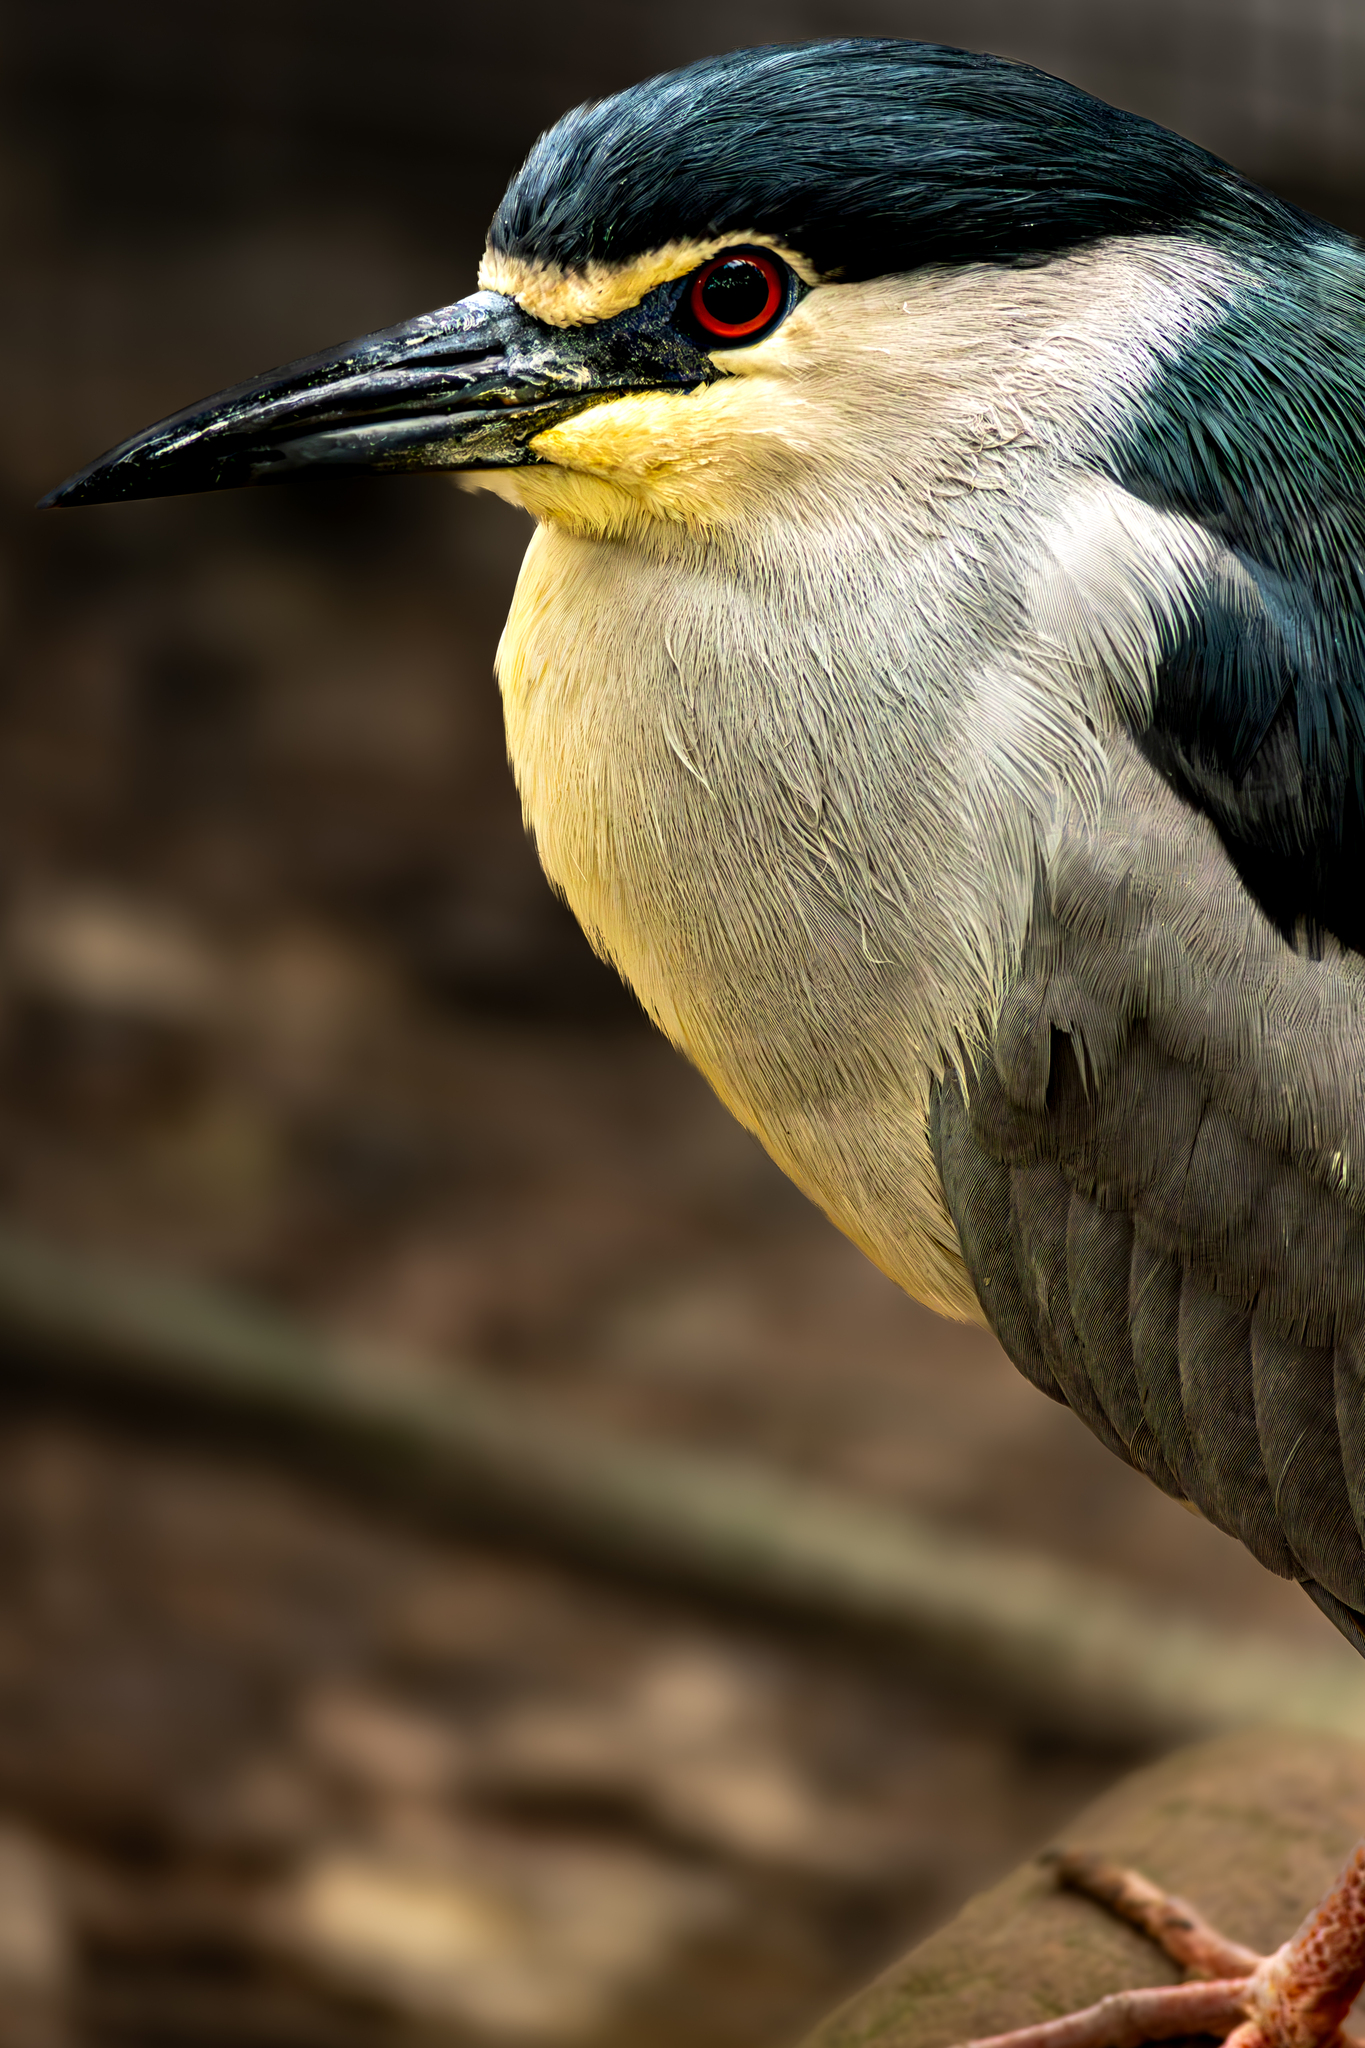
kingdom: Animalia
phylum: Chordata
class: Aves
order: Pelecaniformes
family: Ardeidae
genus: Nycticorax
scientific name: Nycticorax nycticorax
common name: Black-crowned night heron
